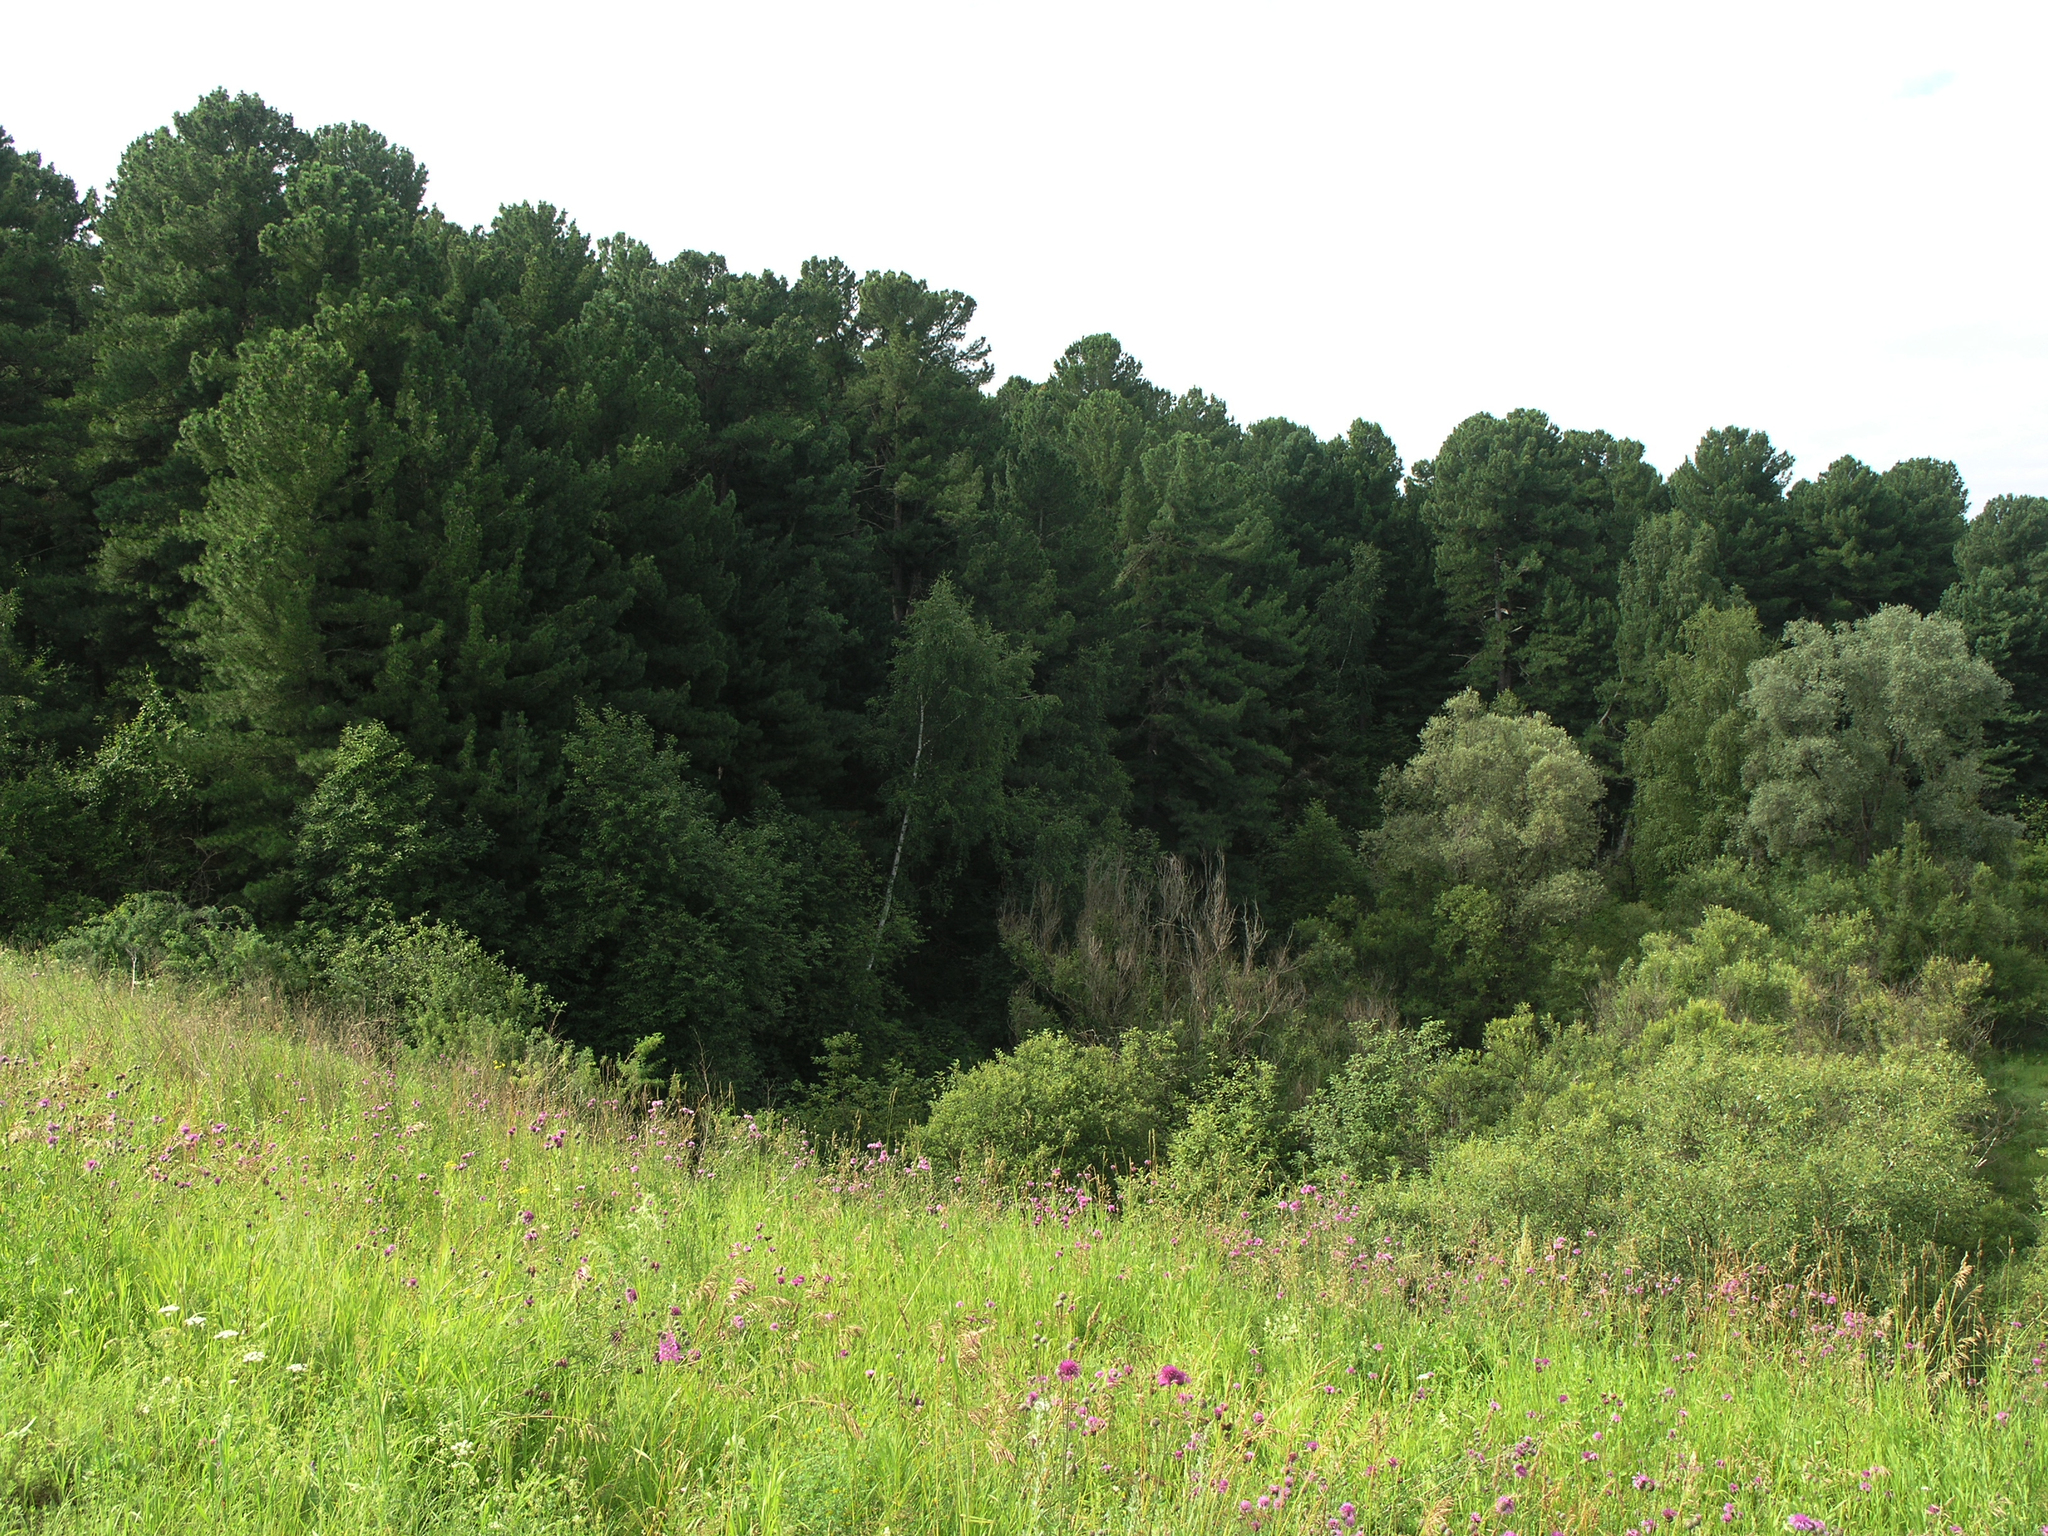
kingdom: Plantae
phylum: Tracheophyta
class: Pinopsida
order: Pinales
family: Pinaceae
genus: Pinus
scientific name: Pinus sibirica
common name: Siberian pine
